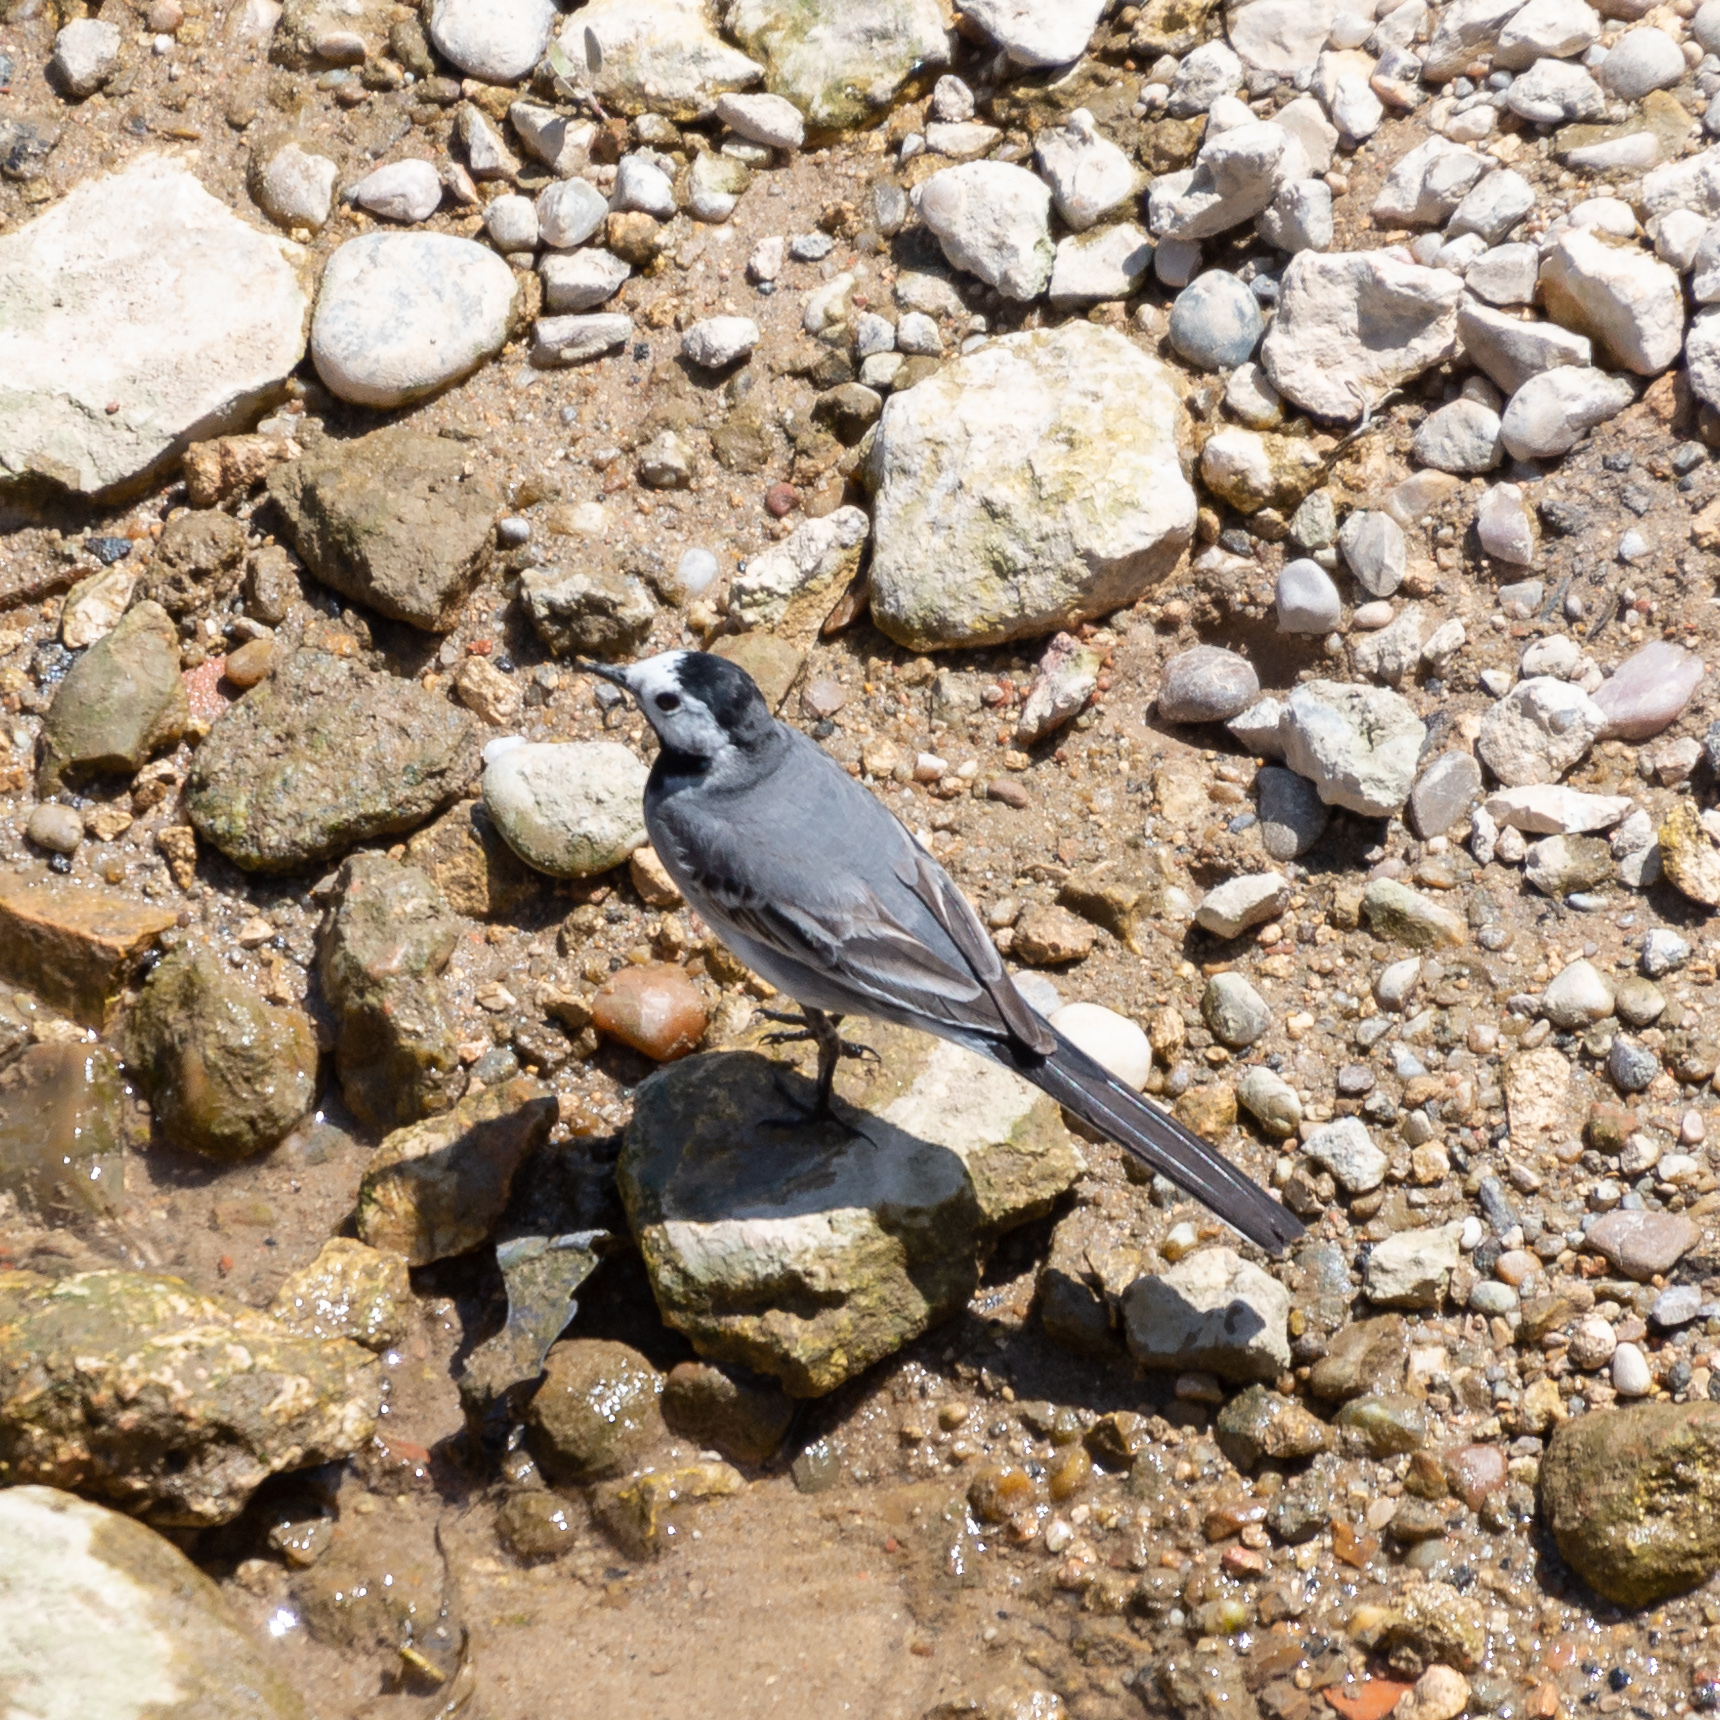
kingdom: Animalia
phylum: Chordata
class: Aves
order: Passeriformes
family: Motacillidae
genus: Motacilla
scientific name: Motacilla alba
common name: White wagtail
